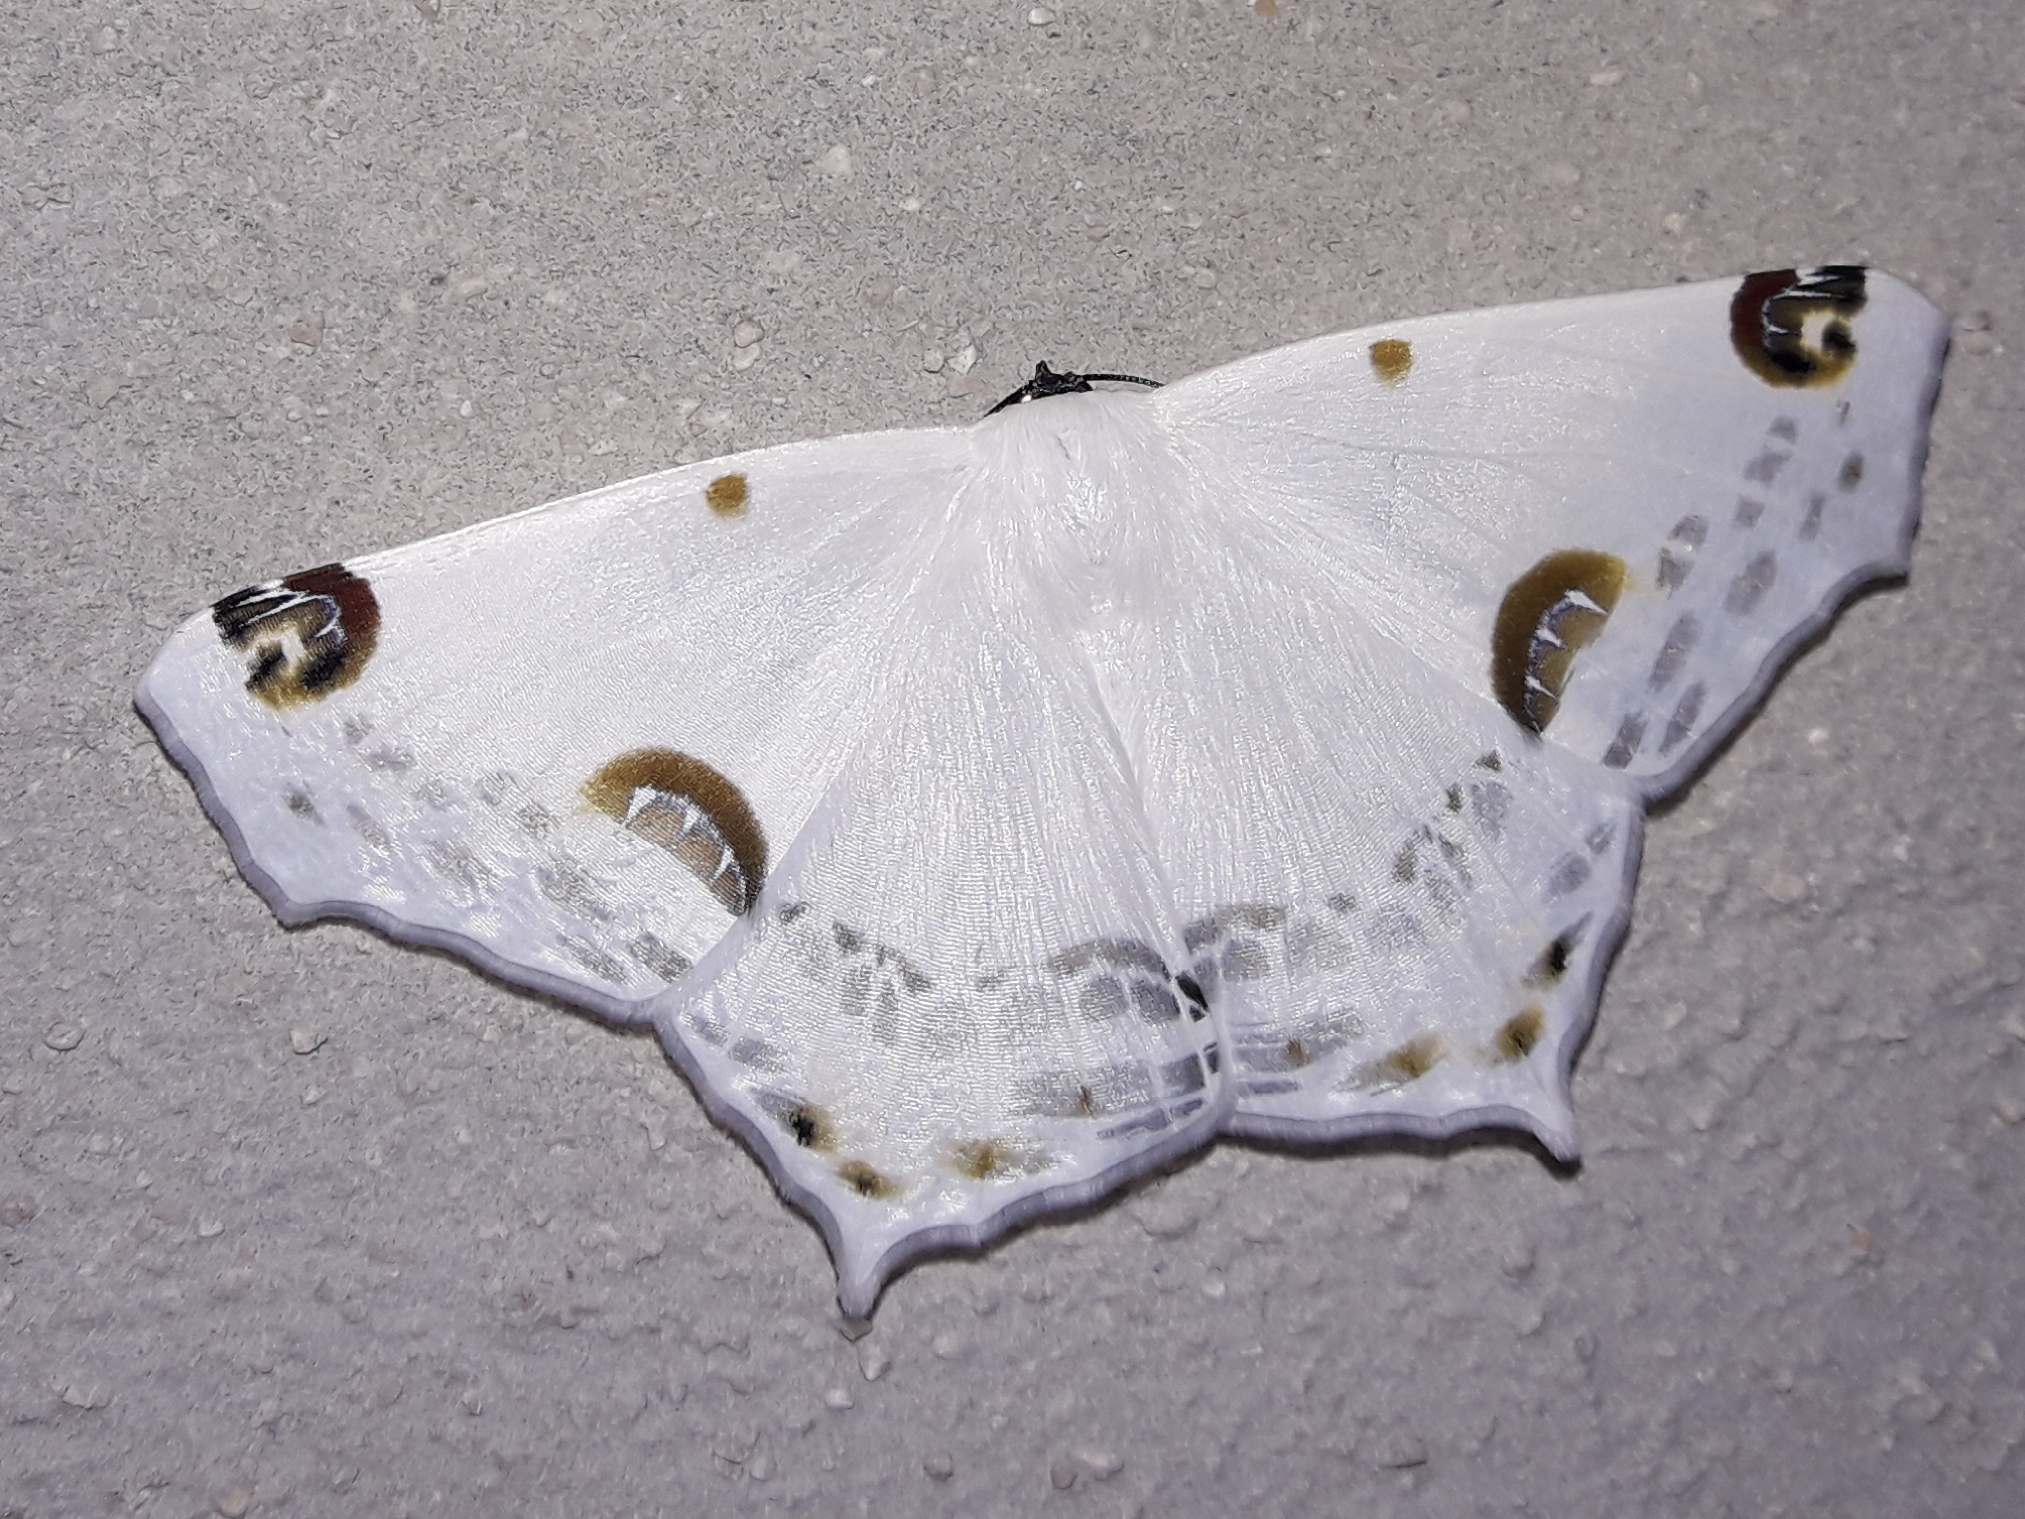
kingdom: Animalia
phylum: Arthropoda
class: Insecta
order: Lepidoptera
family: Geometridae
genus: Sericoptera
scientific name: Sericoptera mahometaria
